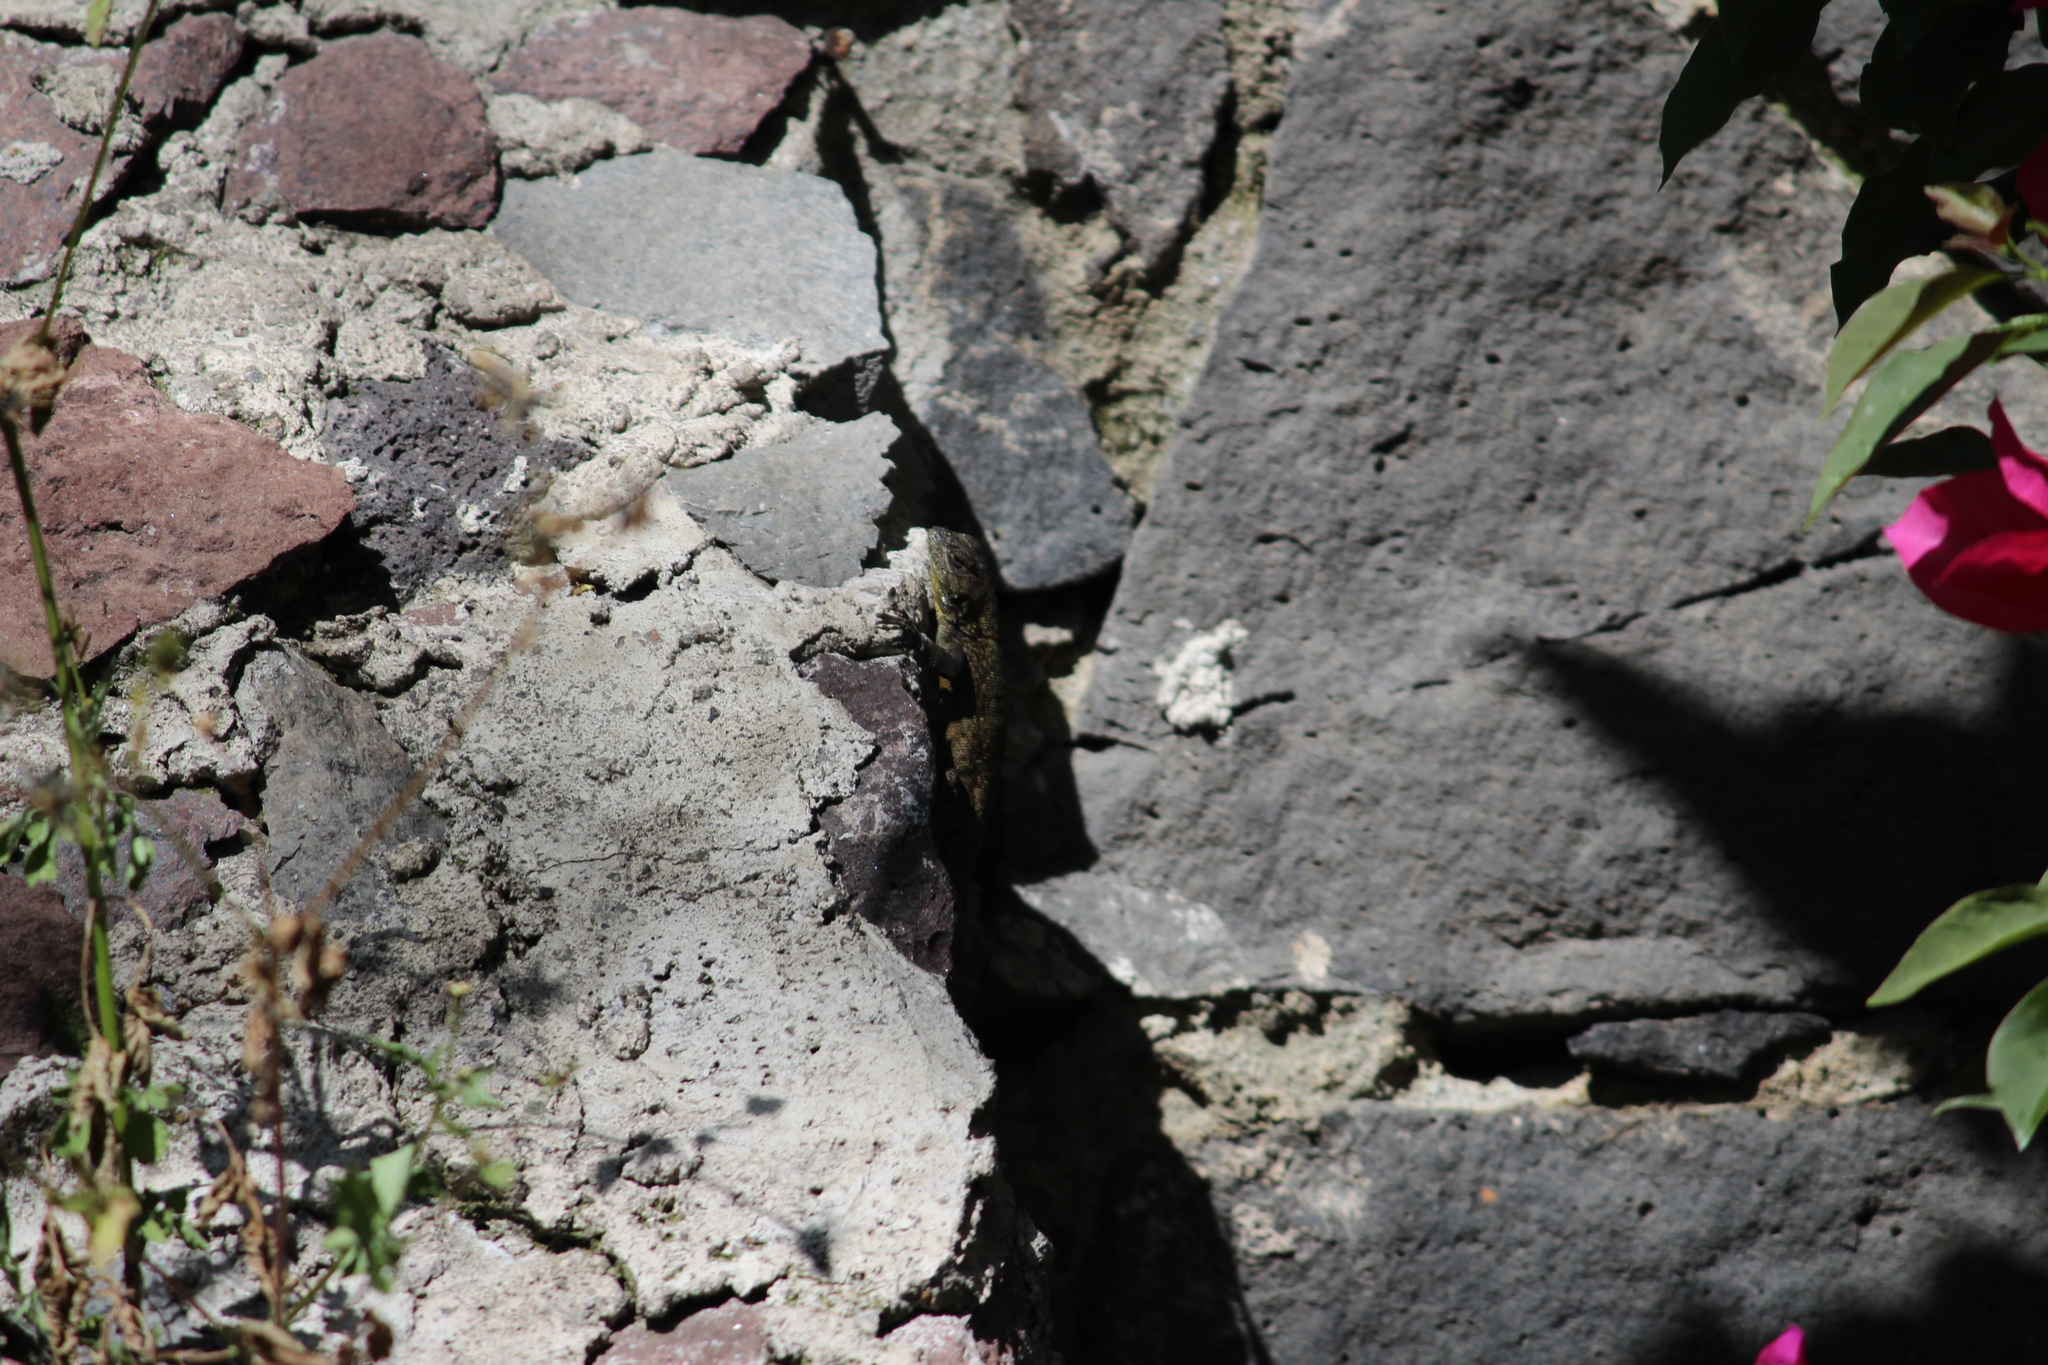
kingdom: Animalia
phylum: Chordata
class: Squamata
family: Phrynosomatidae
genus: Sceloporus
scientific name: Sceloporus grammicus
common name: Mesquite lizard
